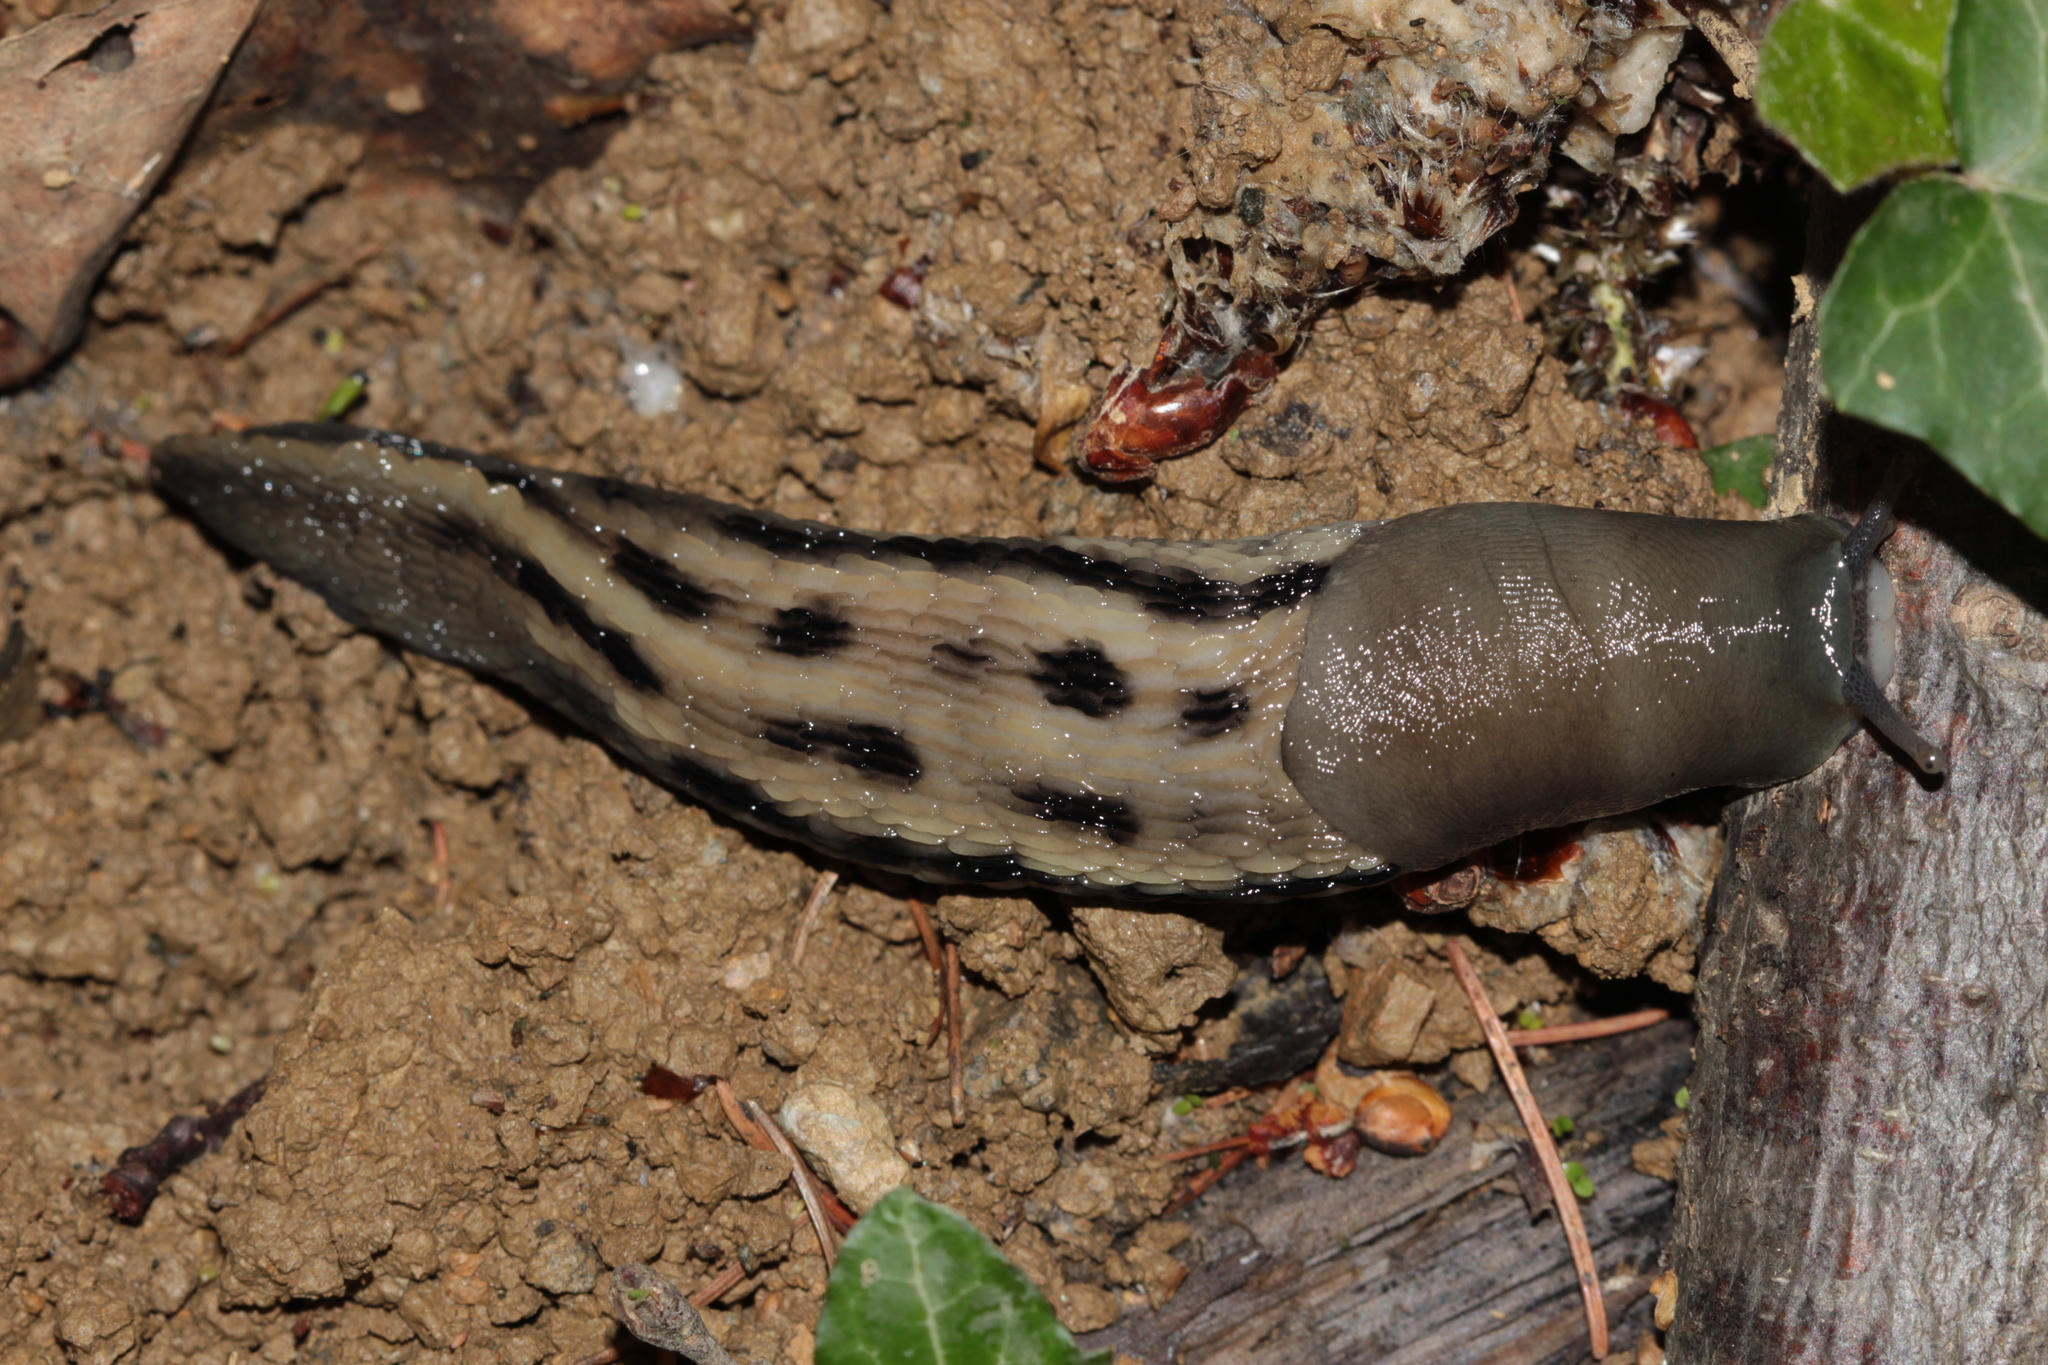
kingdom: Animalia
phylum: Mollusca
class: Gastropoda
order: Stylommatophora
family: Limacidae
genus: Limax
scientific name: Limax cinereoniger
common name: Ash-black slug
